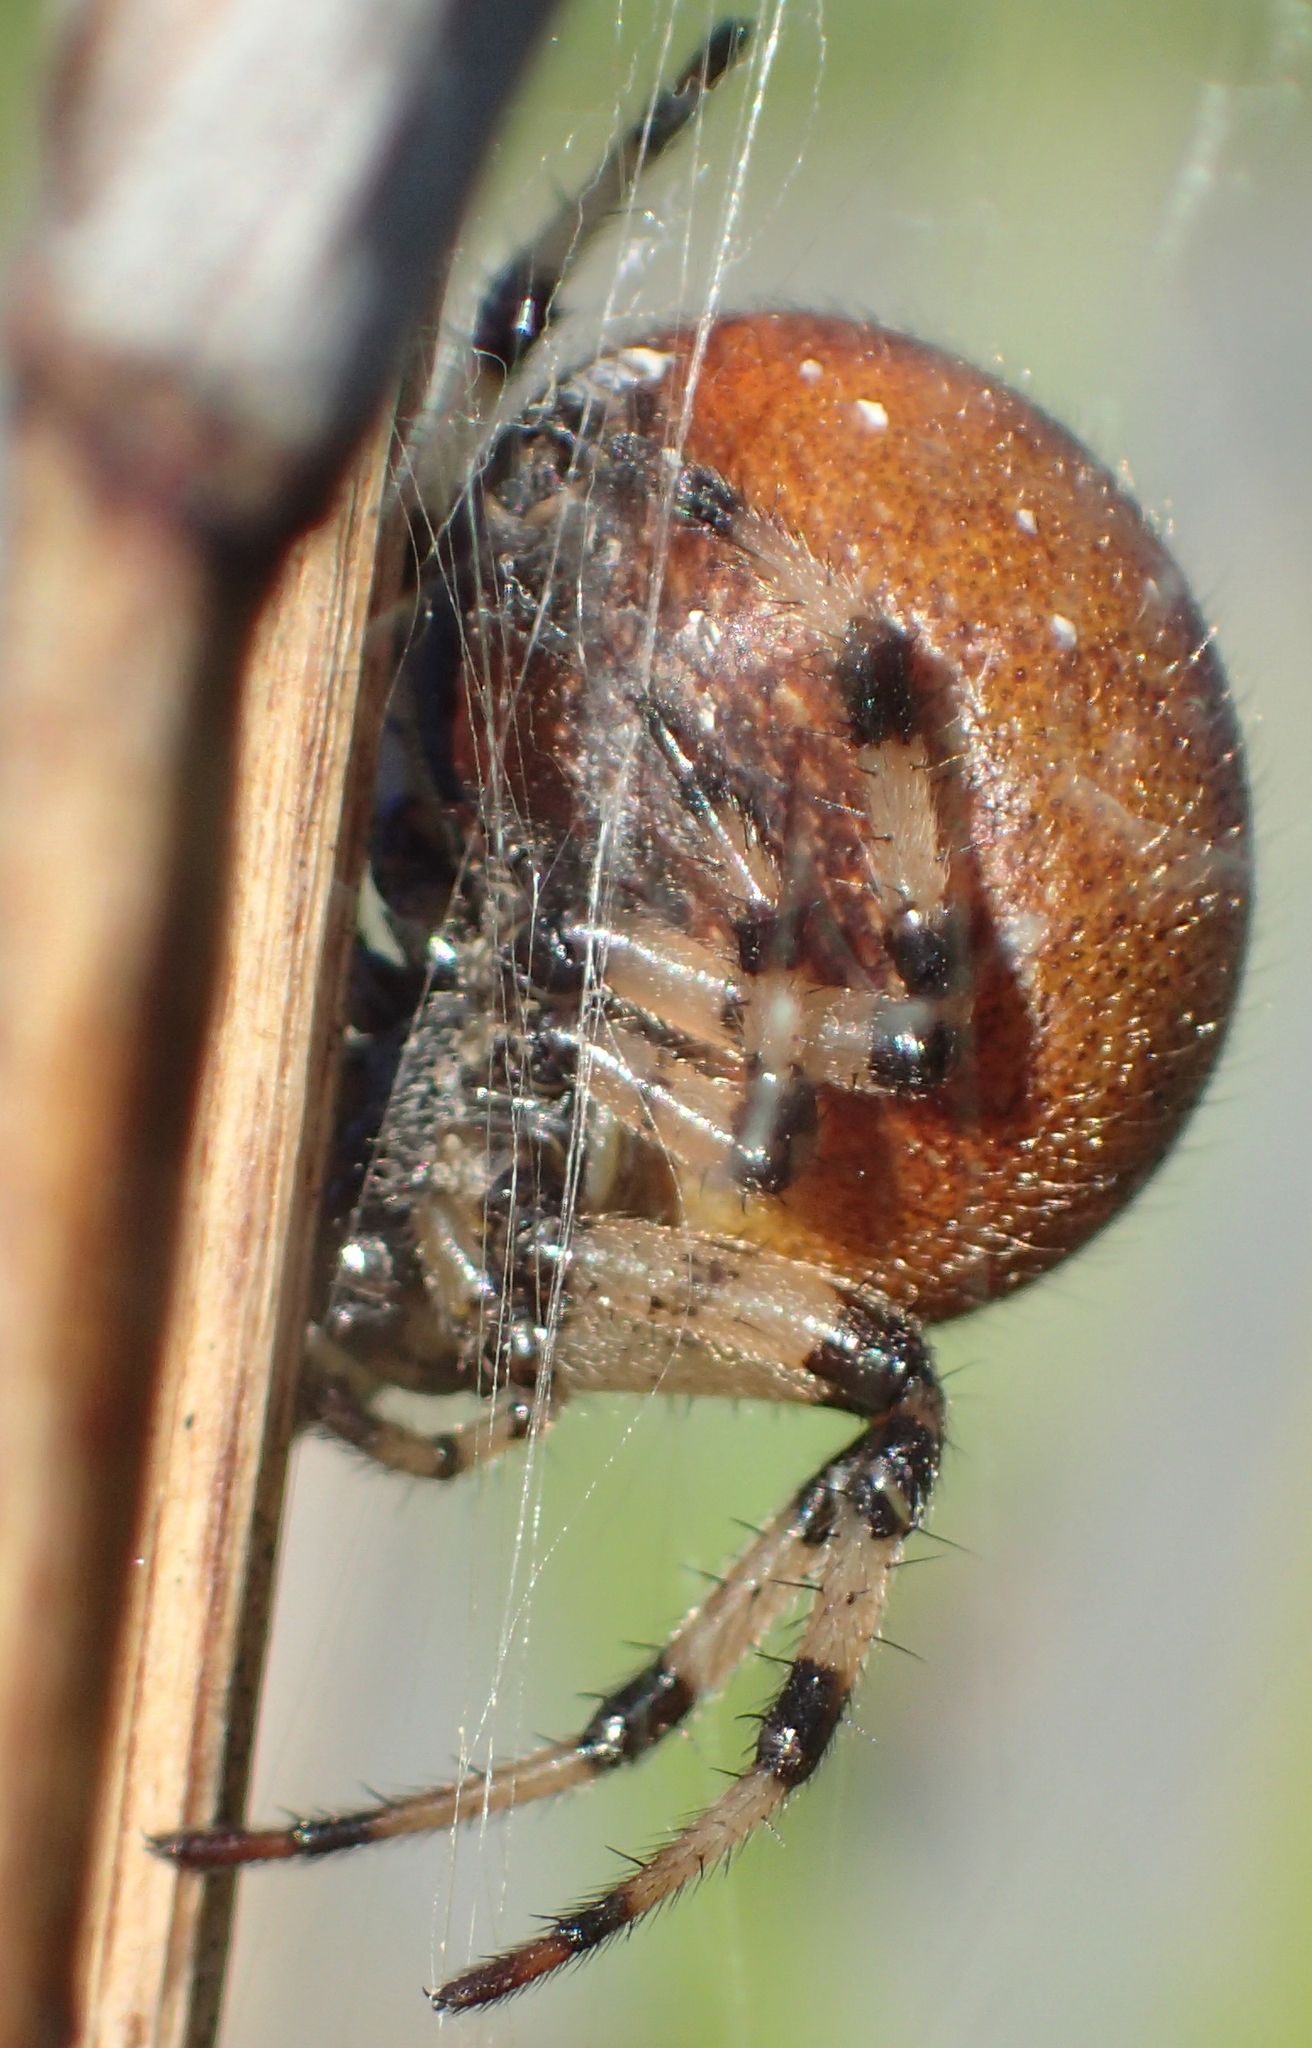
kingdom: Animalia
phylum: Arthropoda
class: Arachnida
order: Araneae
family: Araneidae
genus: Araneus
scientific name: Araneus trifolium
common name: Shamrock orbweaver
